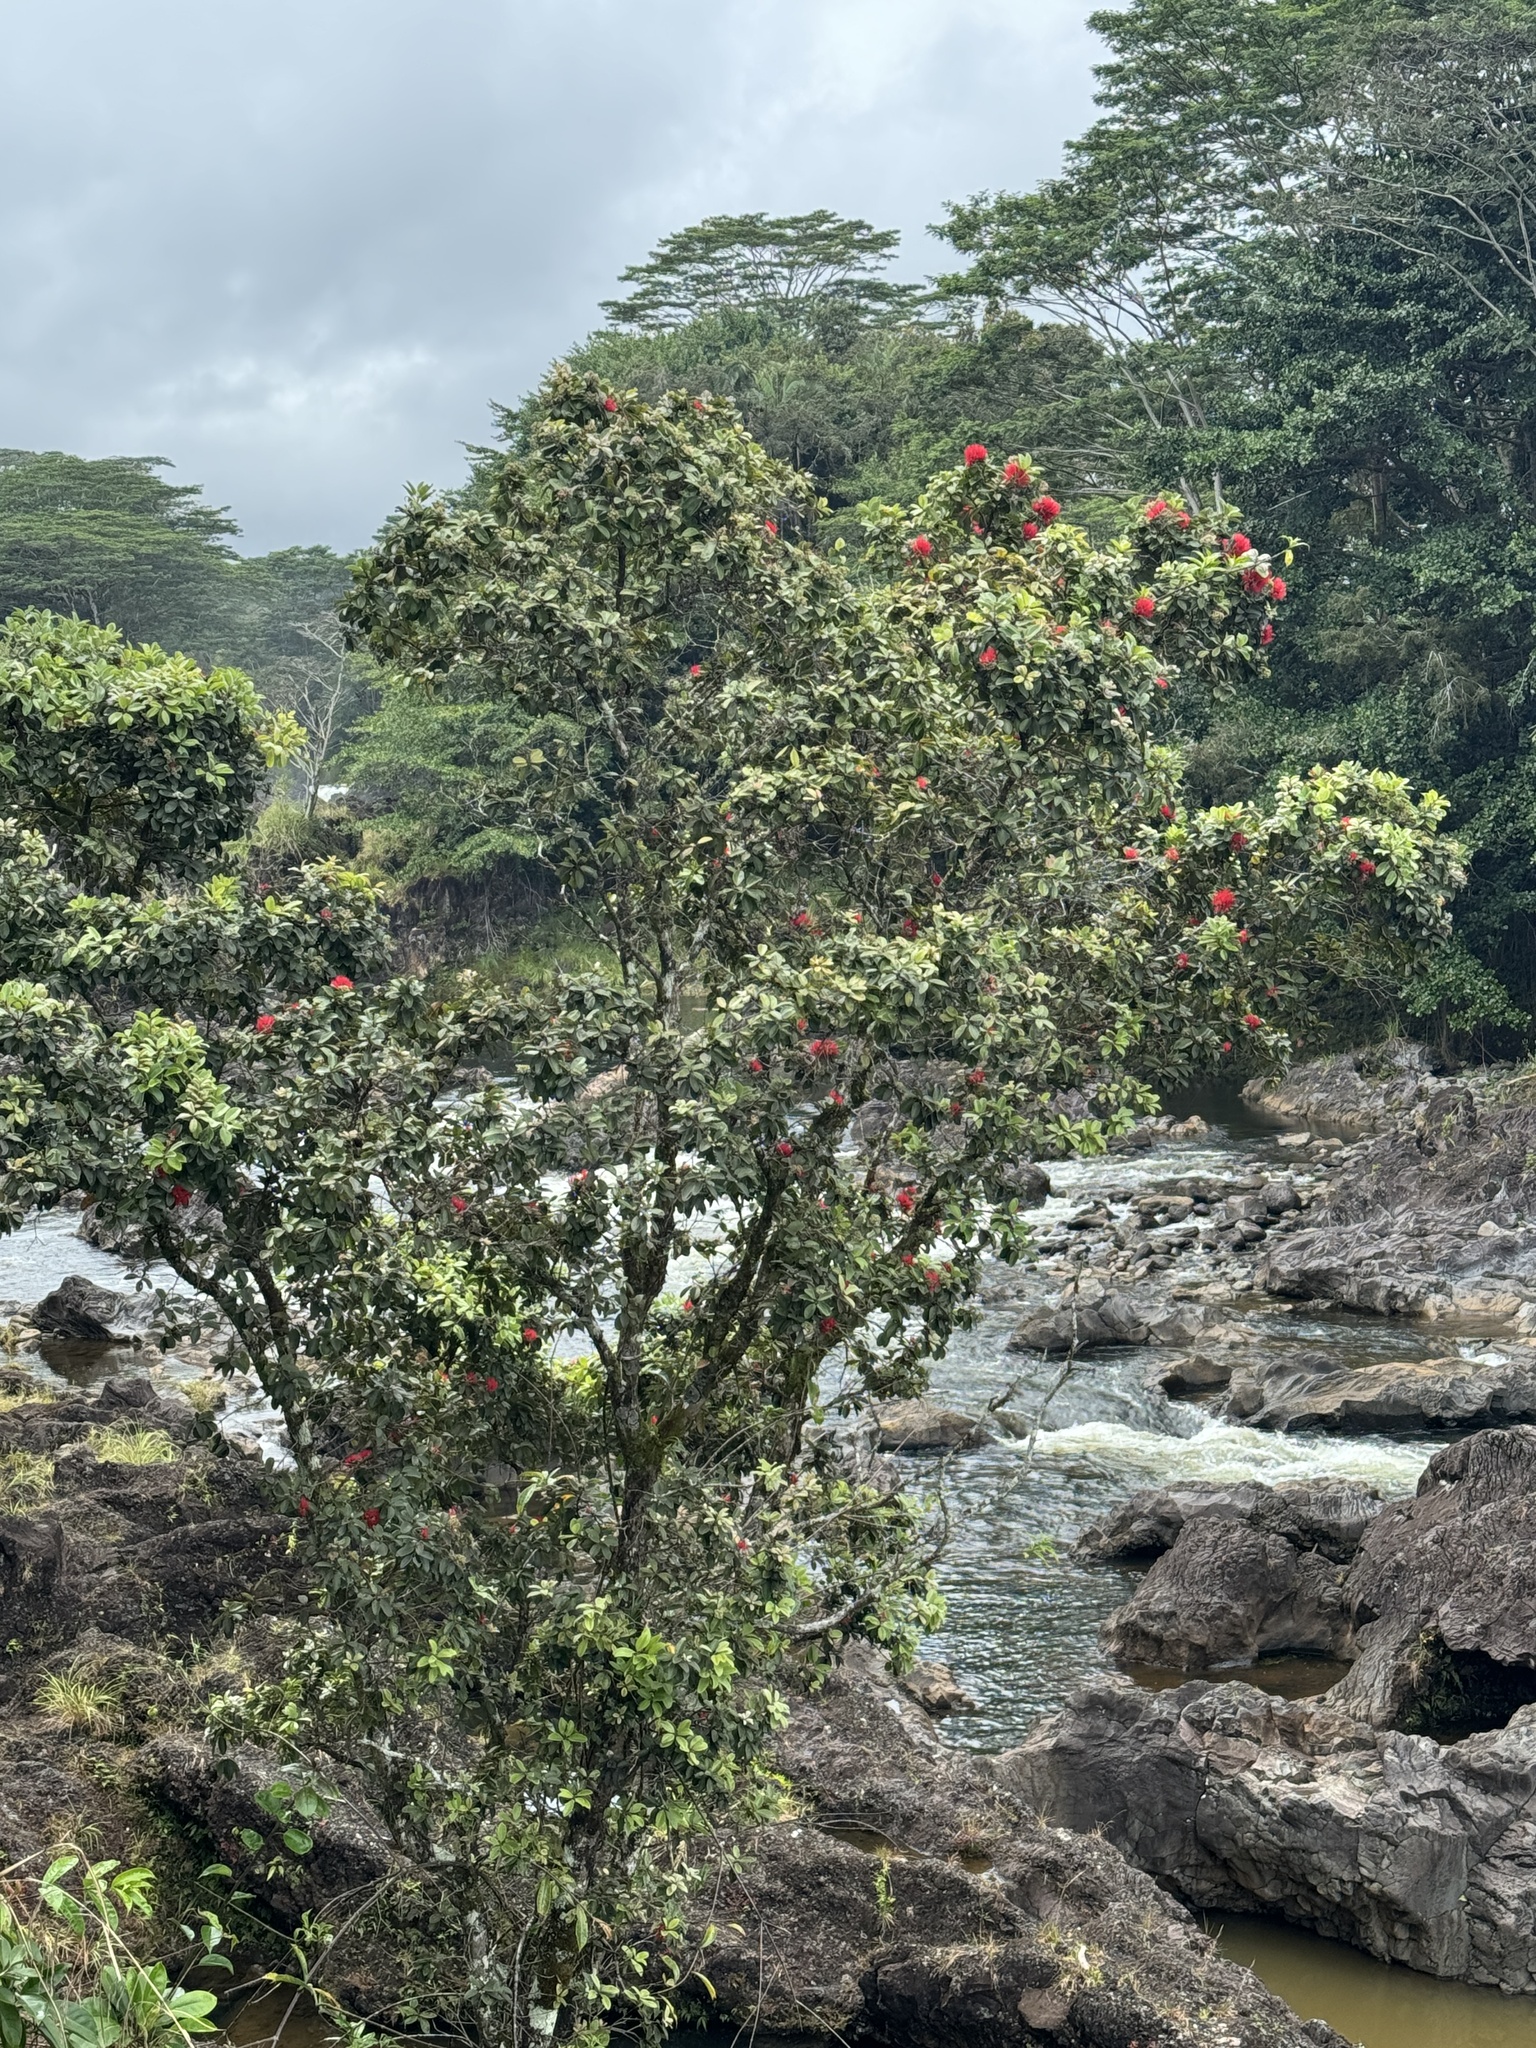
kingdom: Plantae
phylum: Tracheophyta
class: Magnoliopsida
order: Myrtales
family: Myrtaceae
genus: Metrosideros
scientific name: Metrosideros polymorpha
